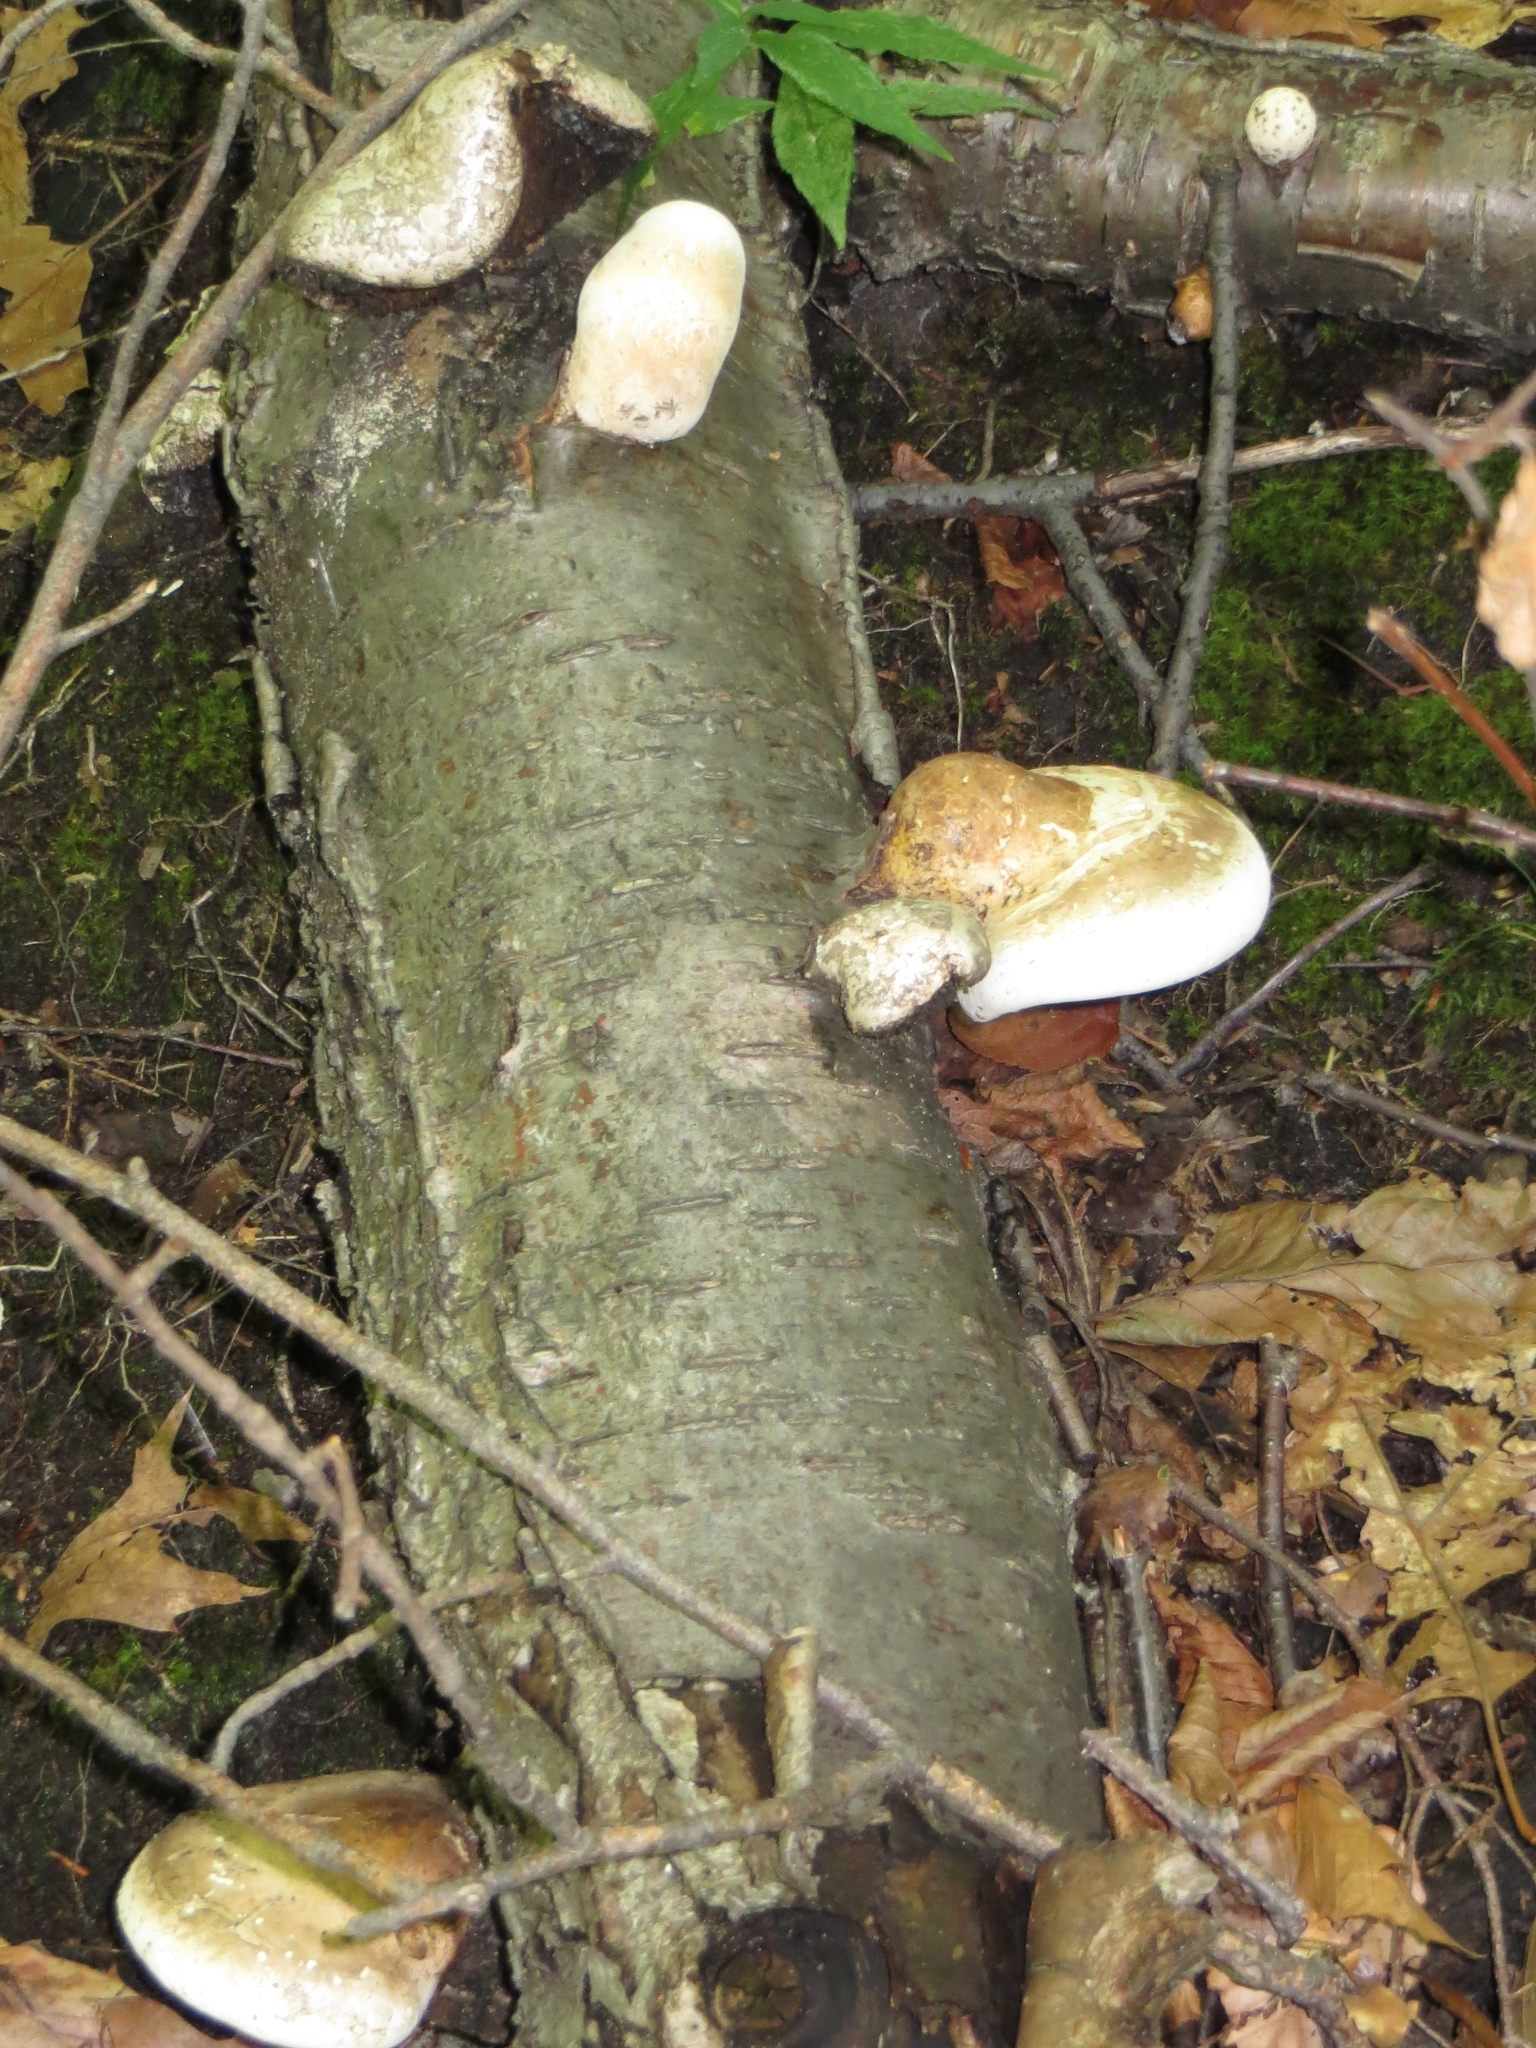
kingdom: Fungi
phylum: Basidiomycota
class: Agaricomycetes
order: Polyporales
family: Fomitopsidaceae
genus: Fomitopsis
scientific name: Fomitopsis betulina
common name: Birch polypore
